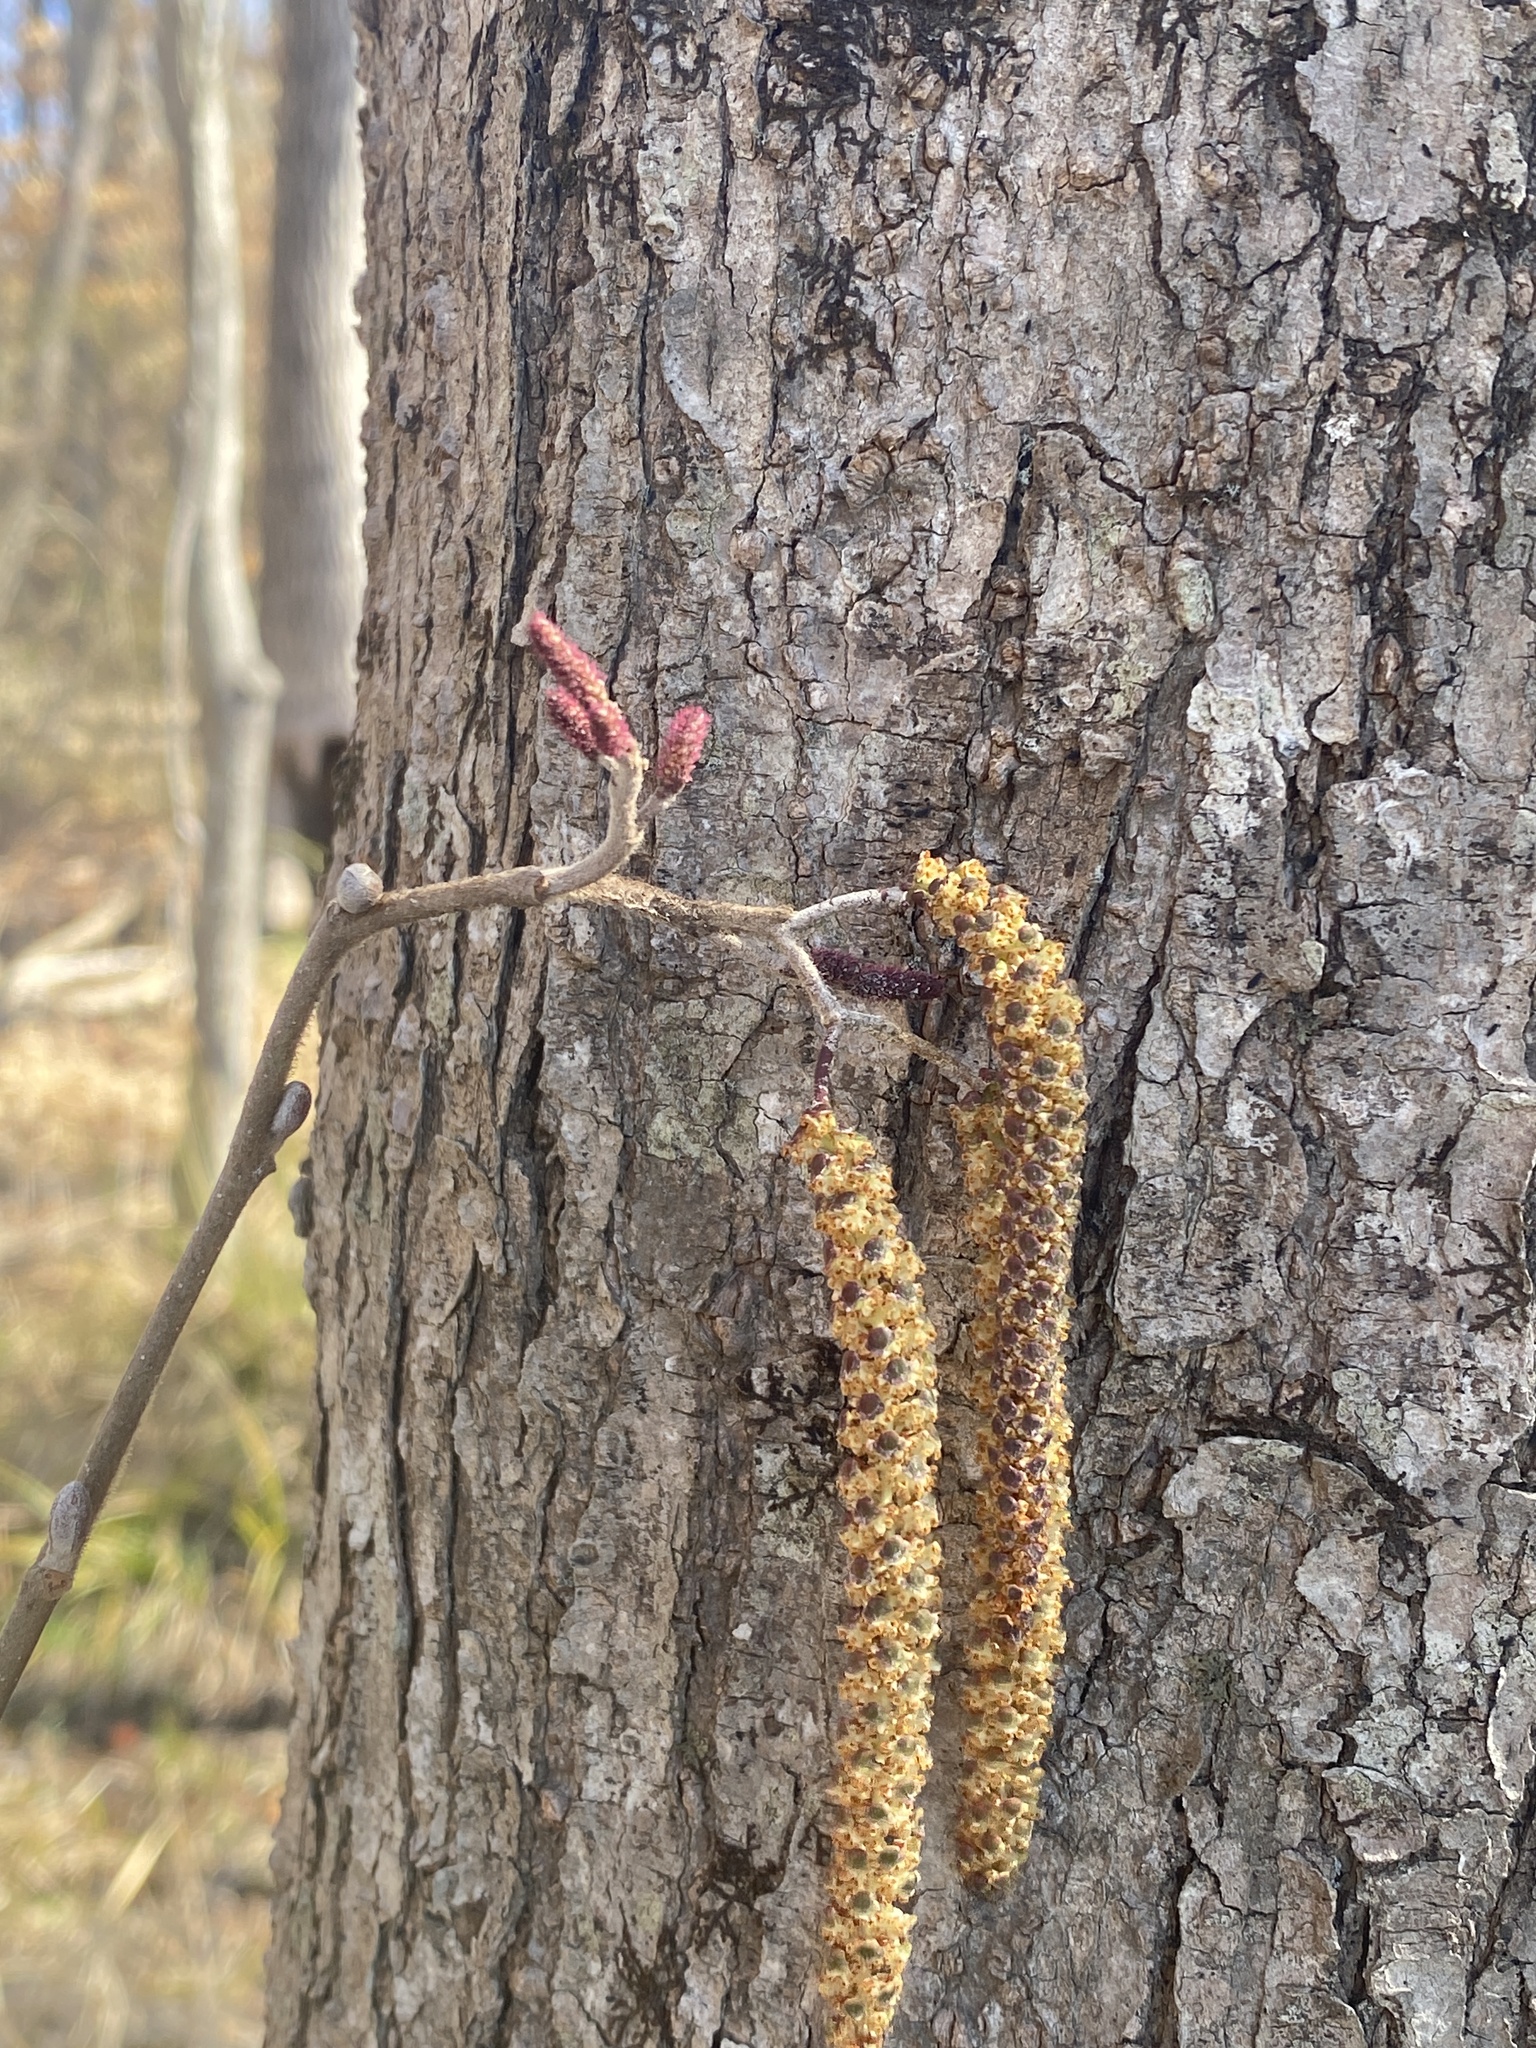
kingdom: Plantae
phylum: Tracheophyta
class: Magnoliopsida
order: Fagales
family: Betulaceae
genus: Alnus
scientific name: Alnus serrulata
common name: Hazel alder
